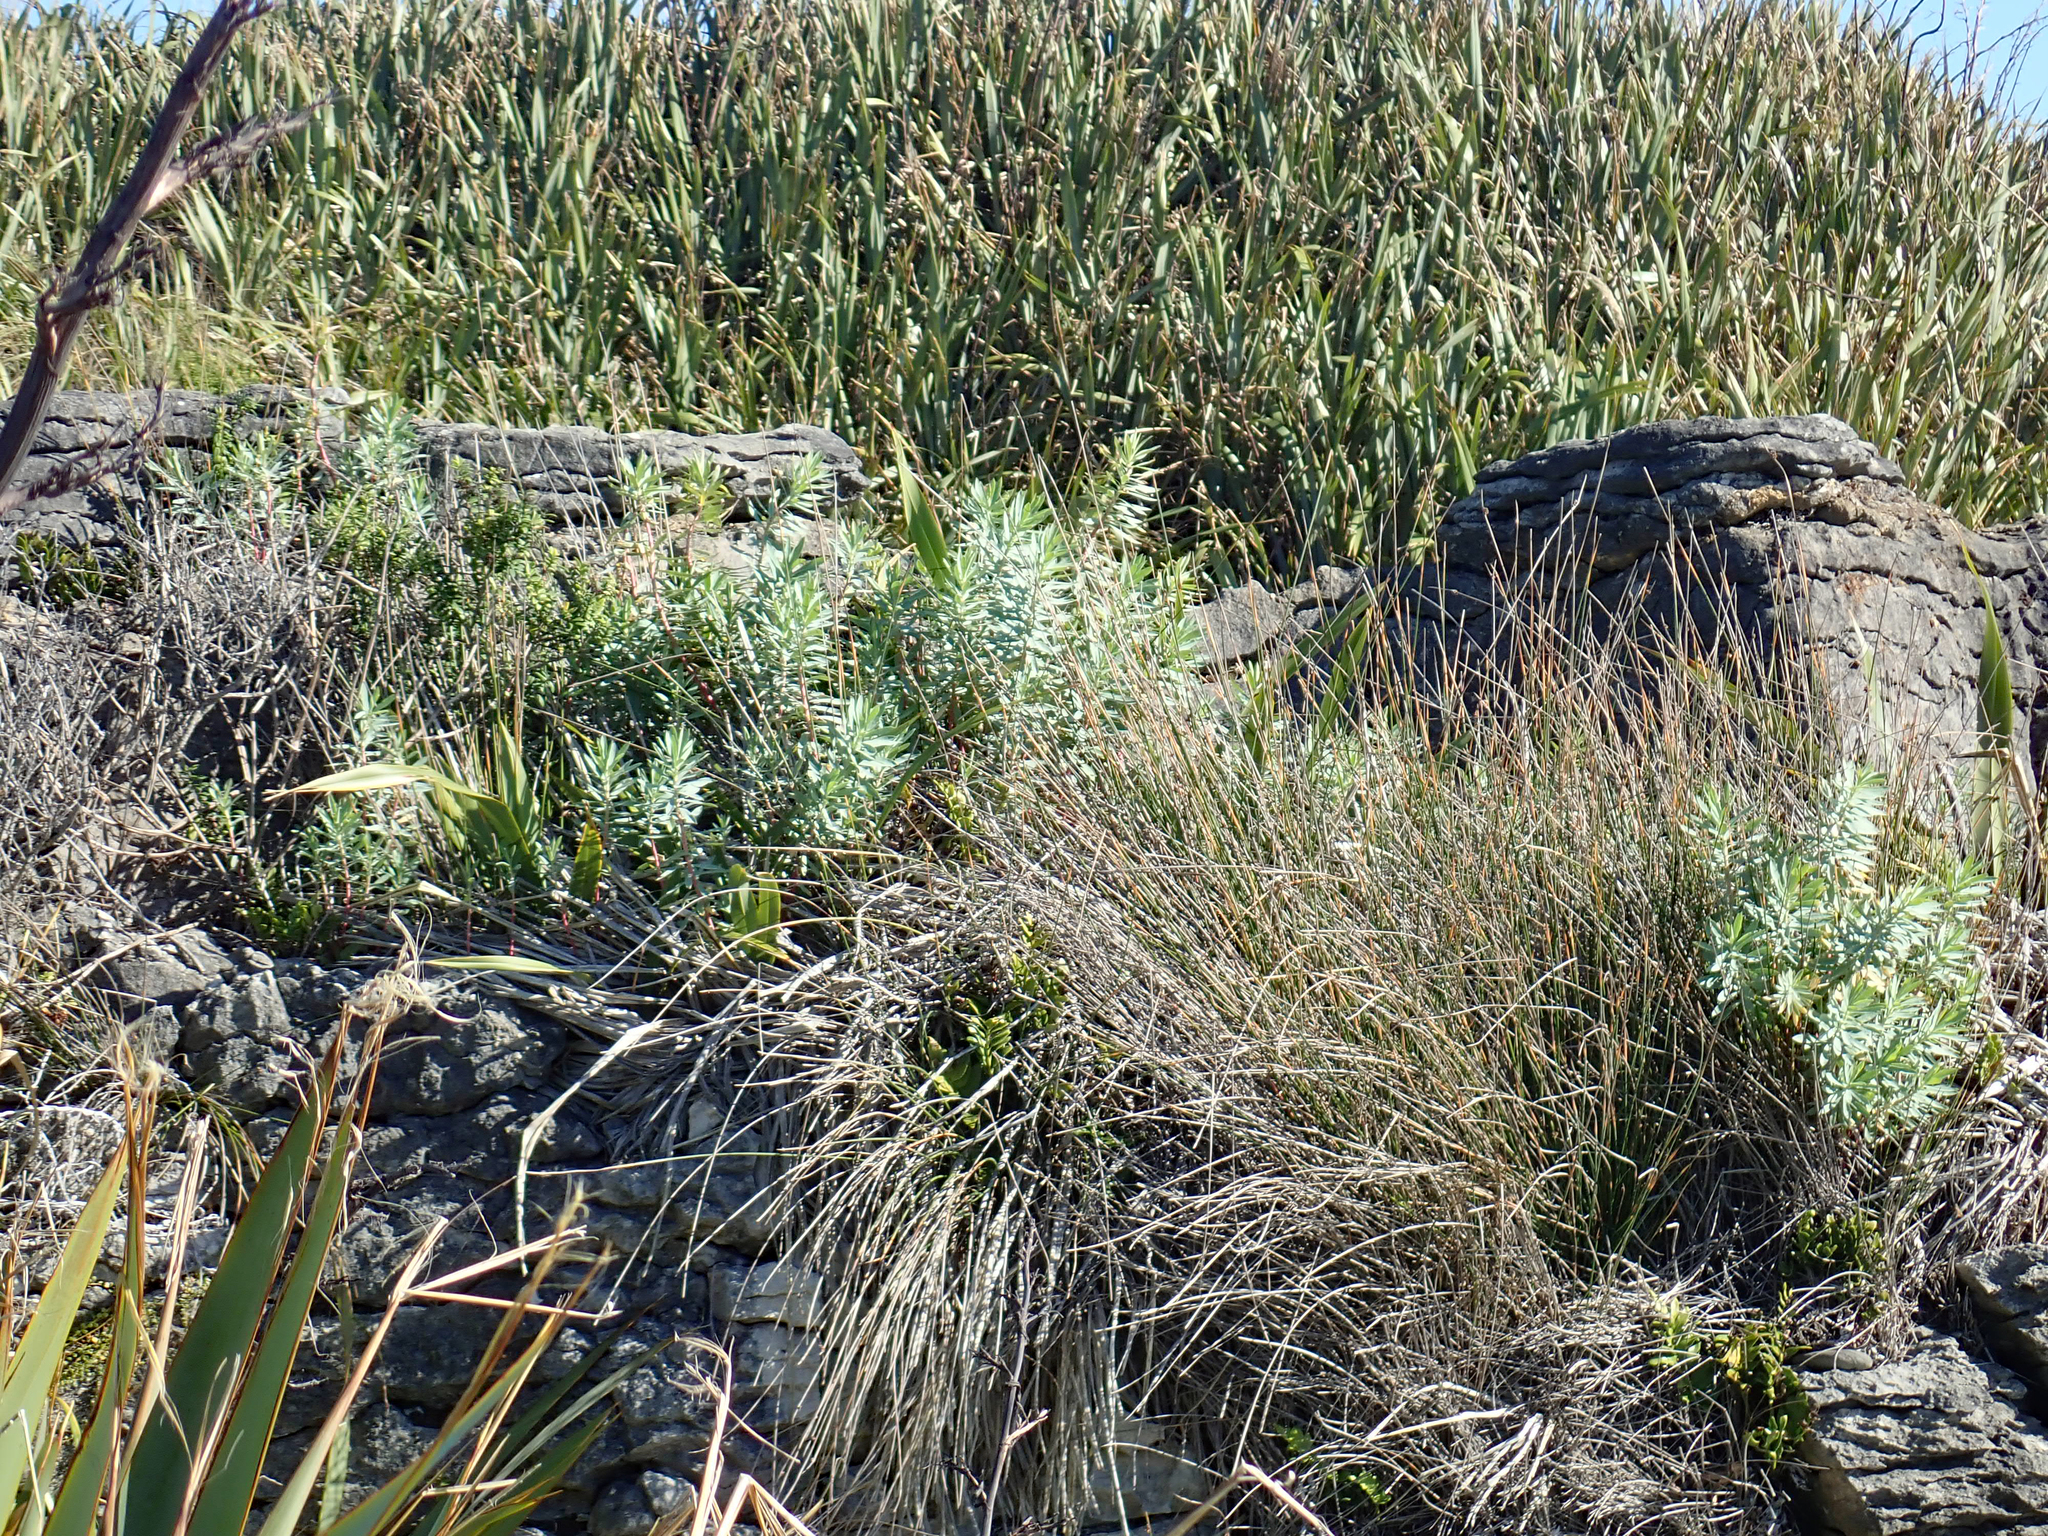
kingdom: Plantae
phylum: Tracheophyta
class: Magnoliopsida
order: Malpighiales
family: Euphorbiaceae
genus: Euphorbia
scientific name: Euphorbia glauca
